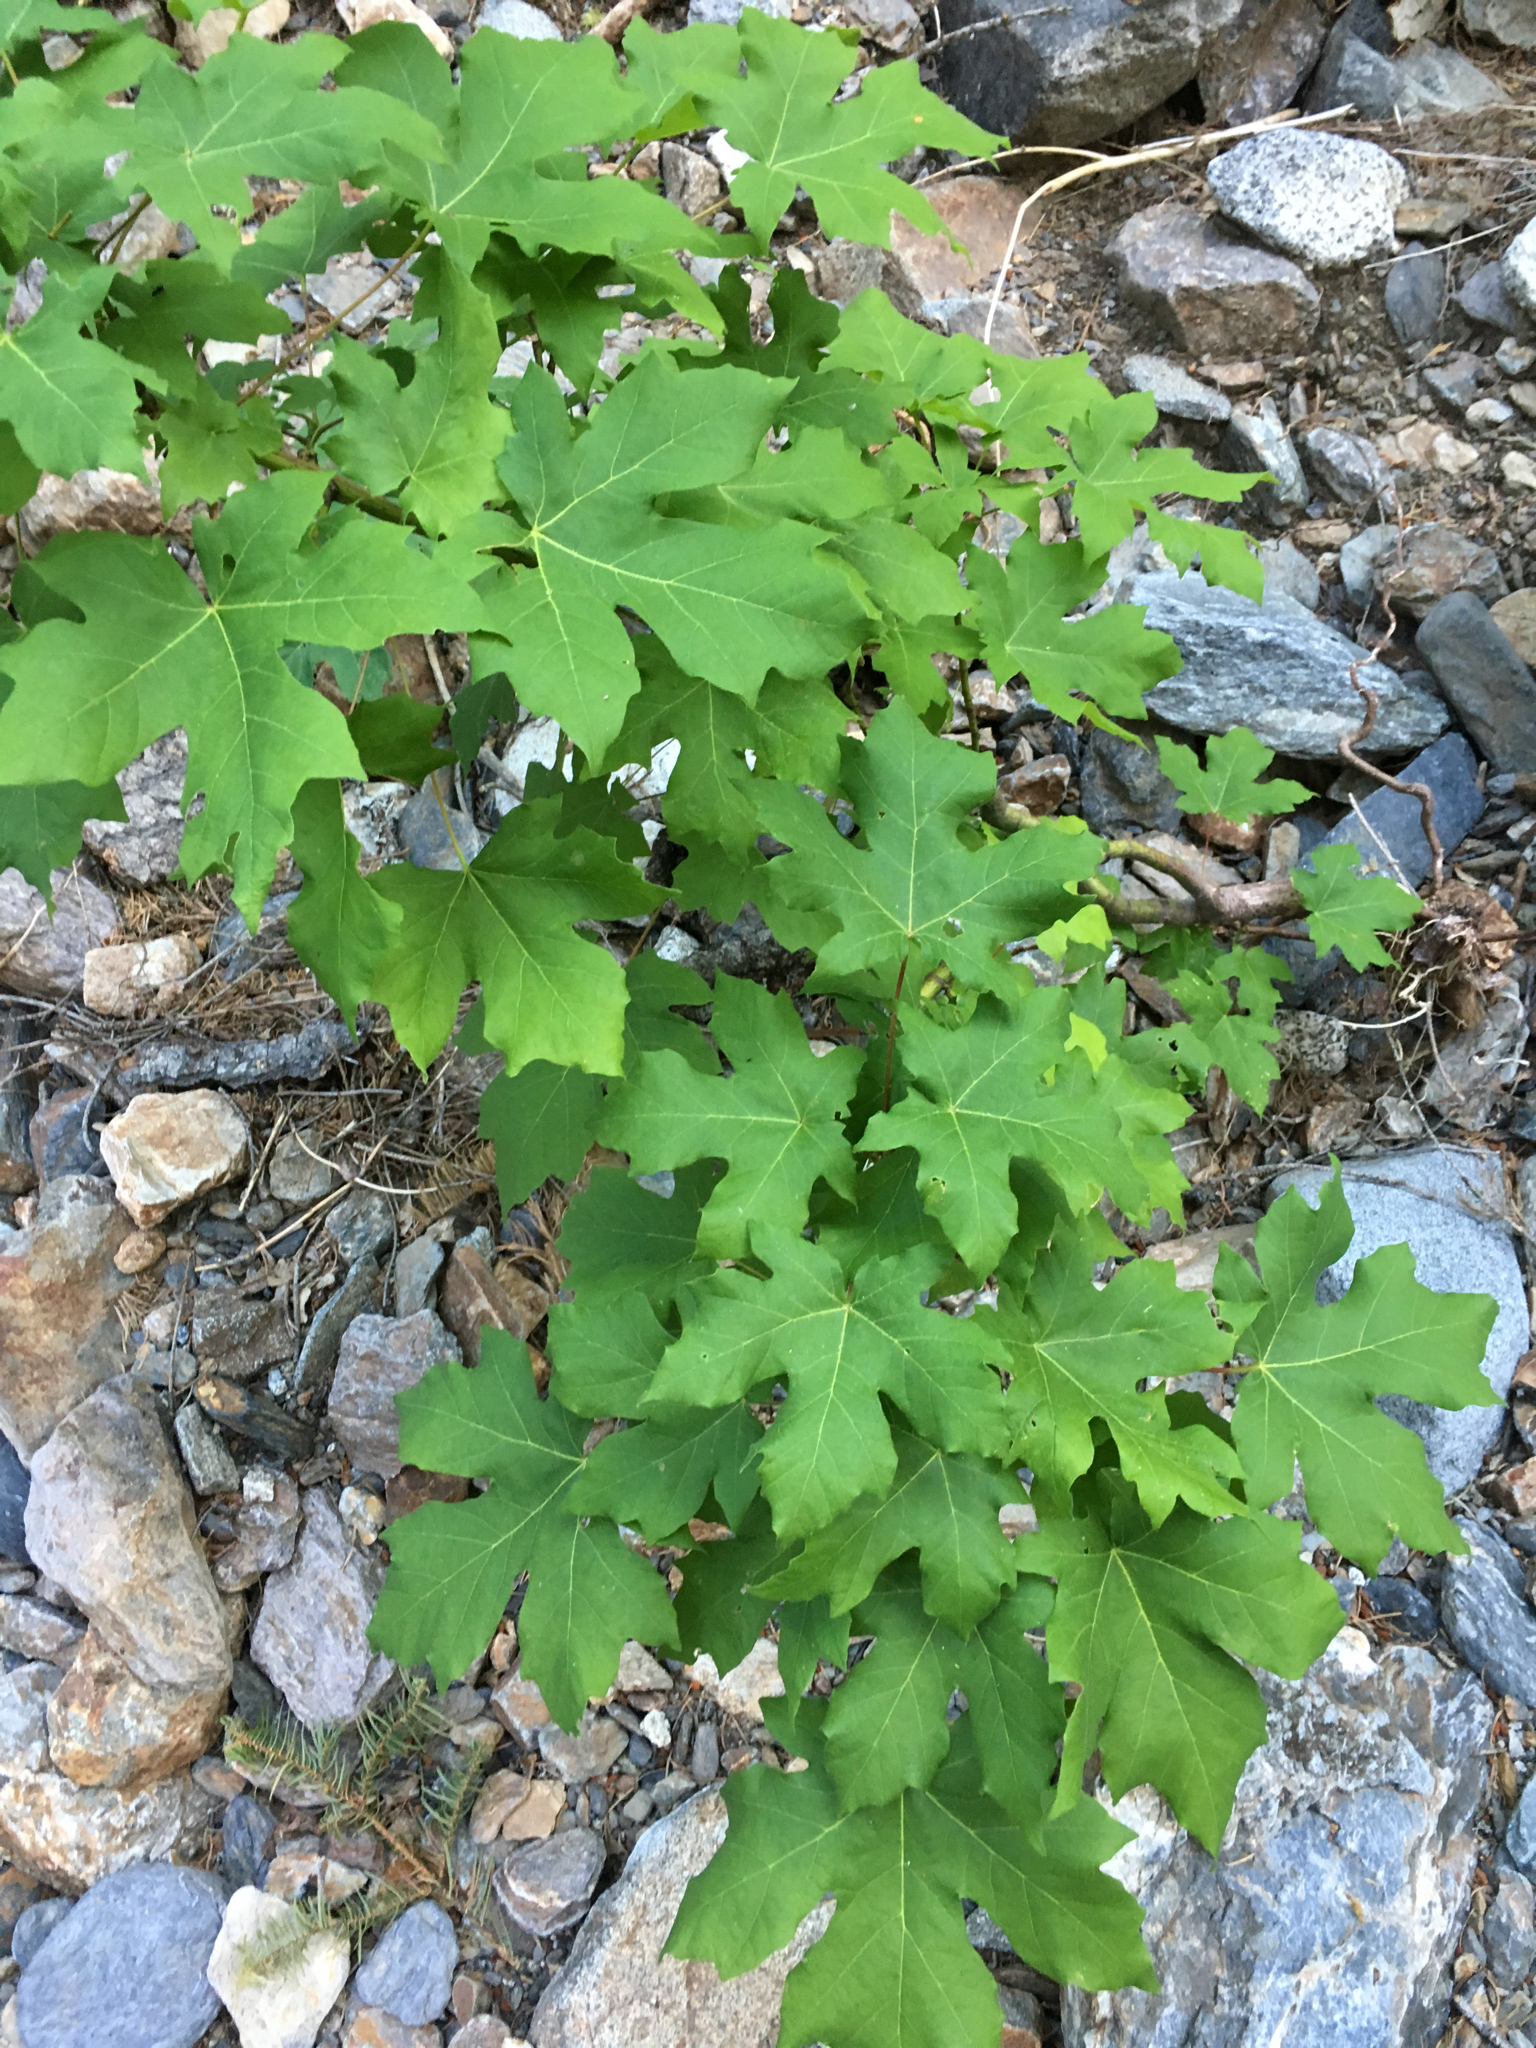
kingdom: Plantae
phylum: Tracheophyta
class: Magnoliopsida
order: Sapindales
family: Sapindaceae
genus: Acer
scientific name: Acer macrophyllum
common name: Oregon maple
